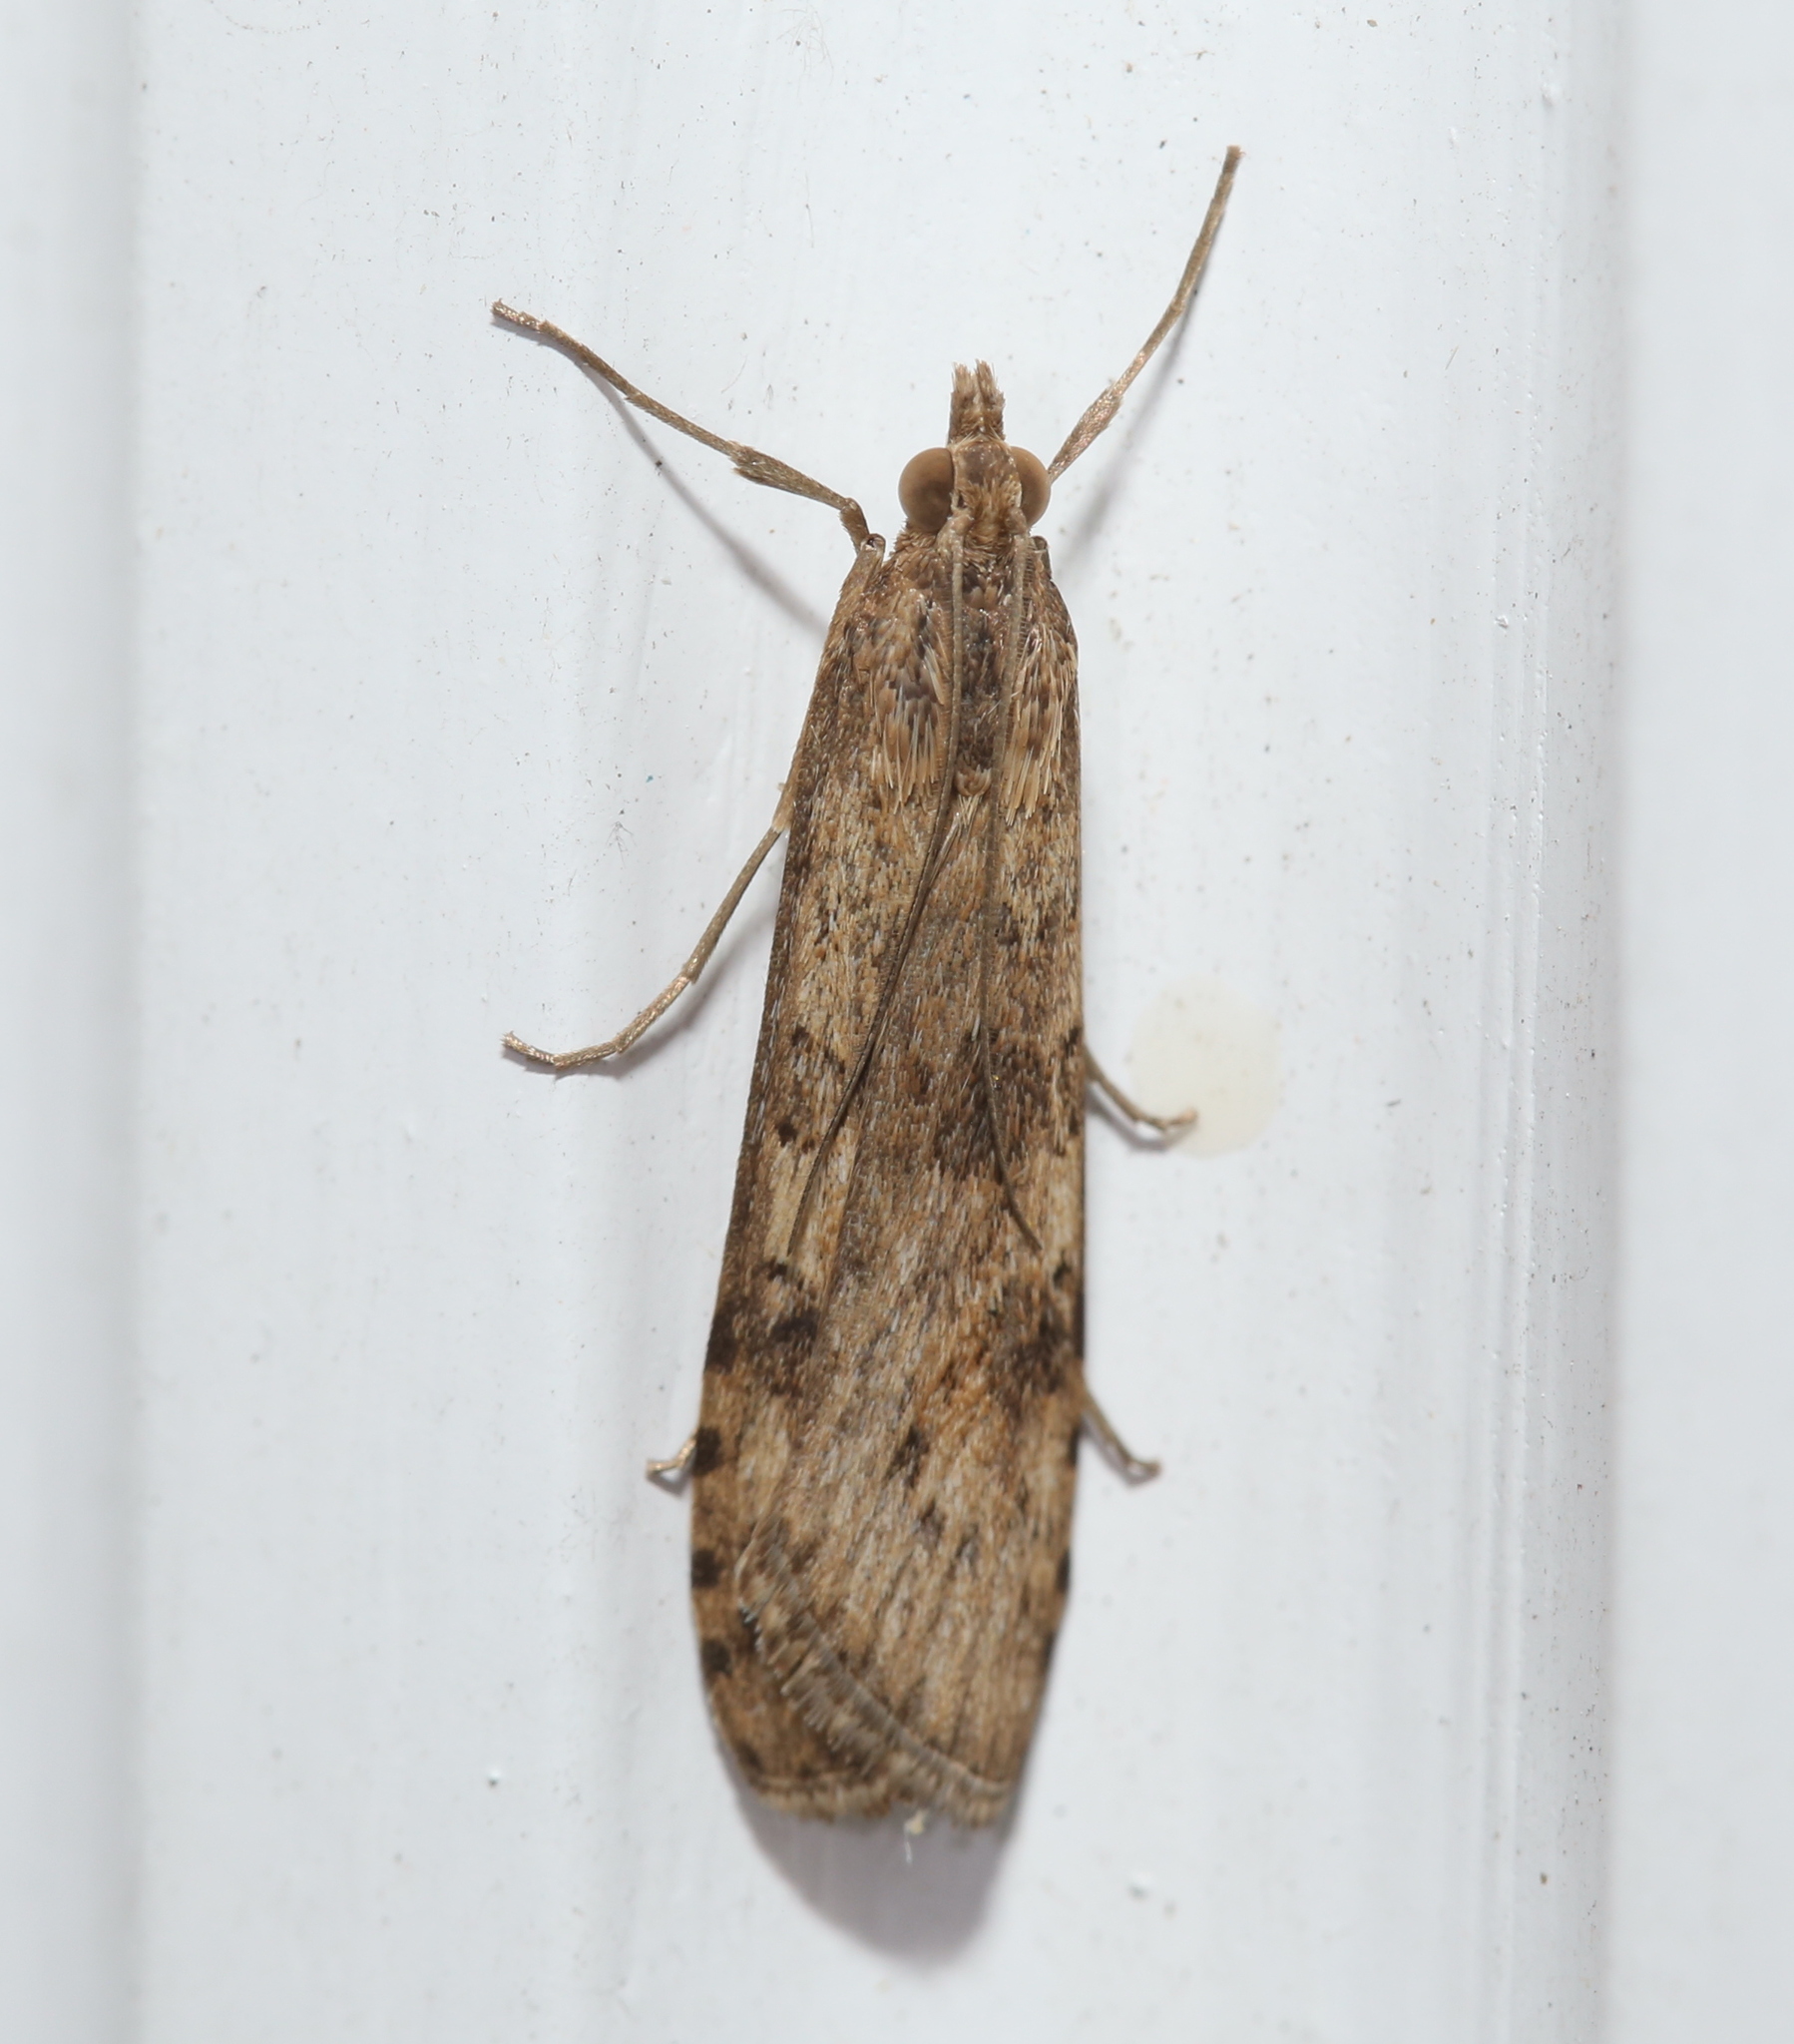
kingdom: Animalia
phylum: Arthropoda
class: Insecta
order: Lepidoptera
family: Crambidae
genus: Nomophila
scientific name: Nomophila nearctica
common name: American rush veneer
